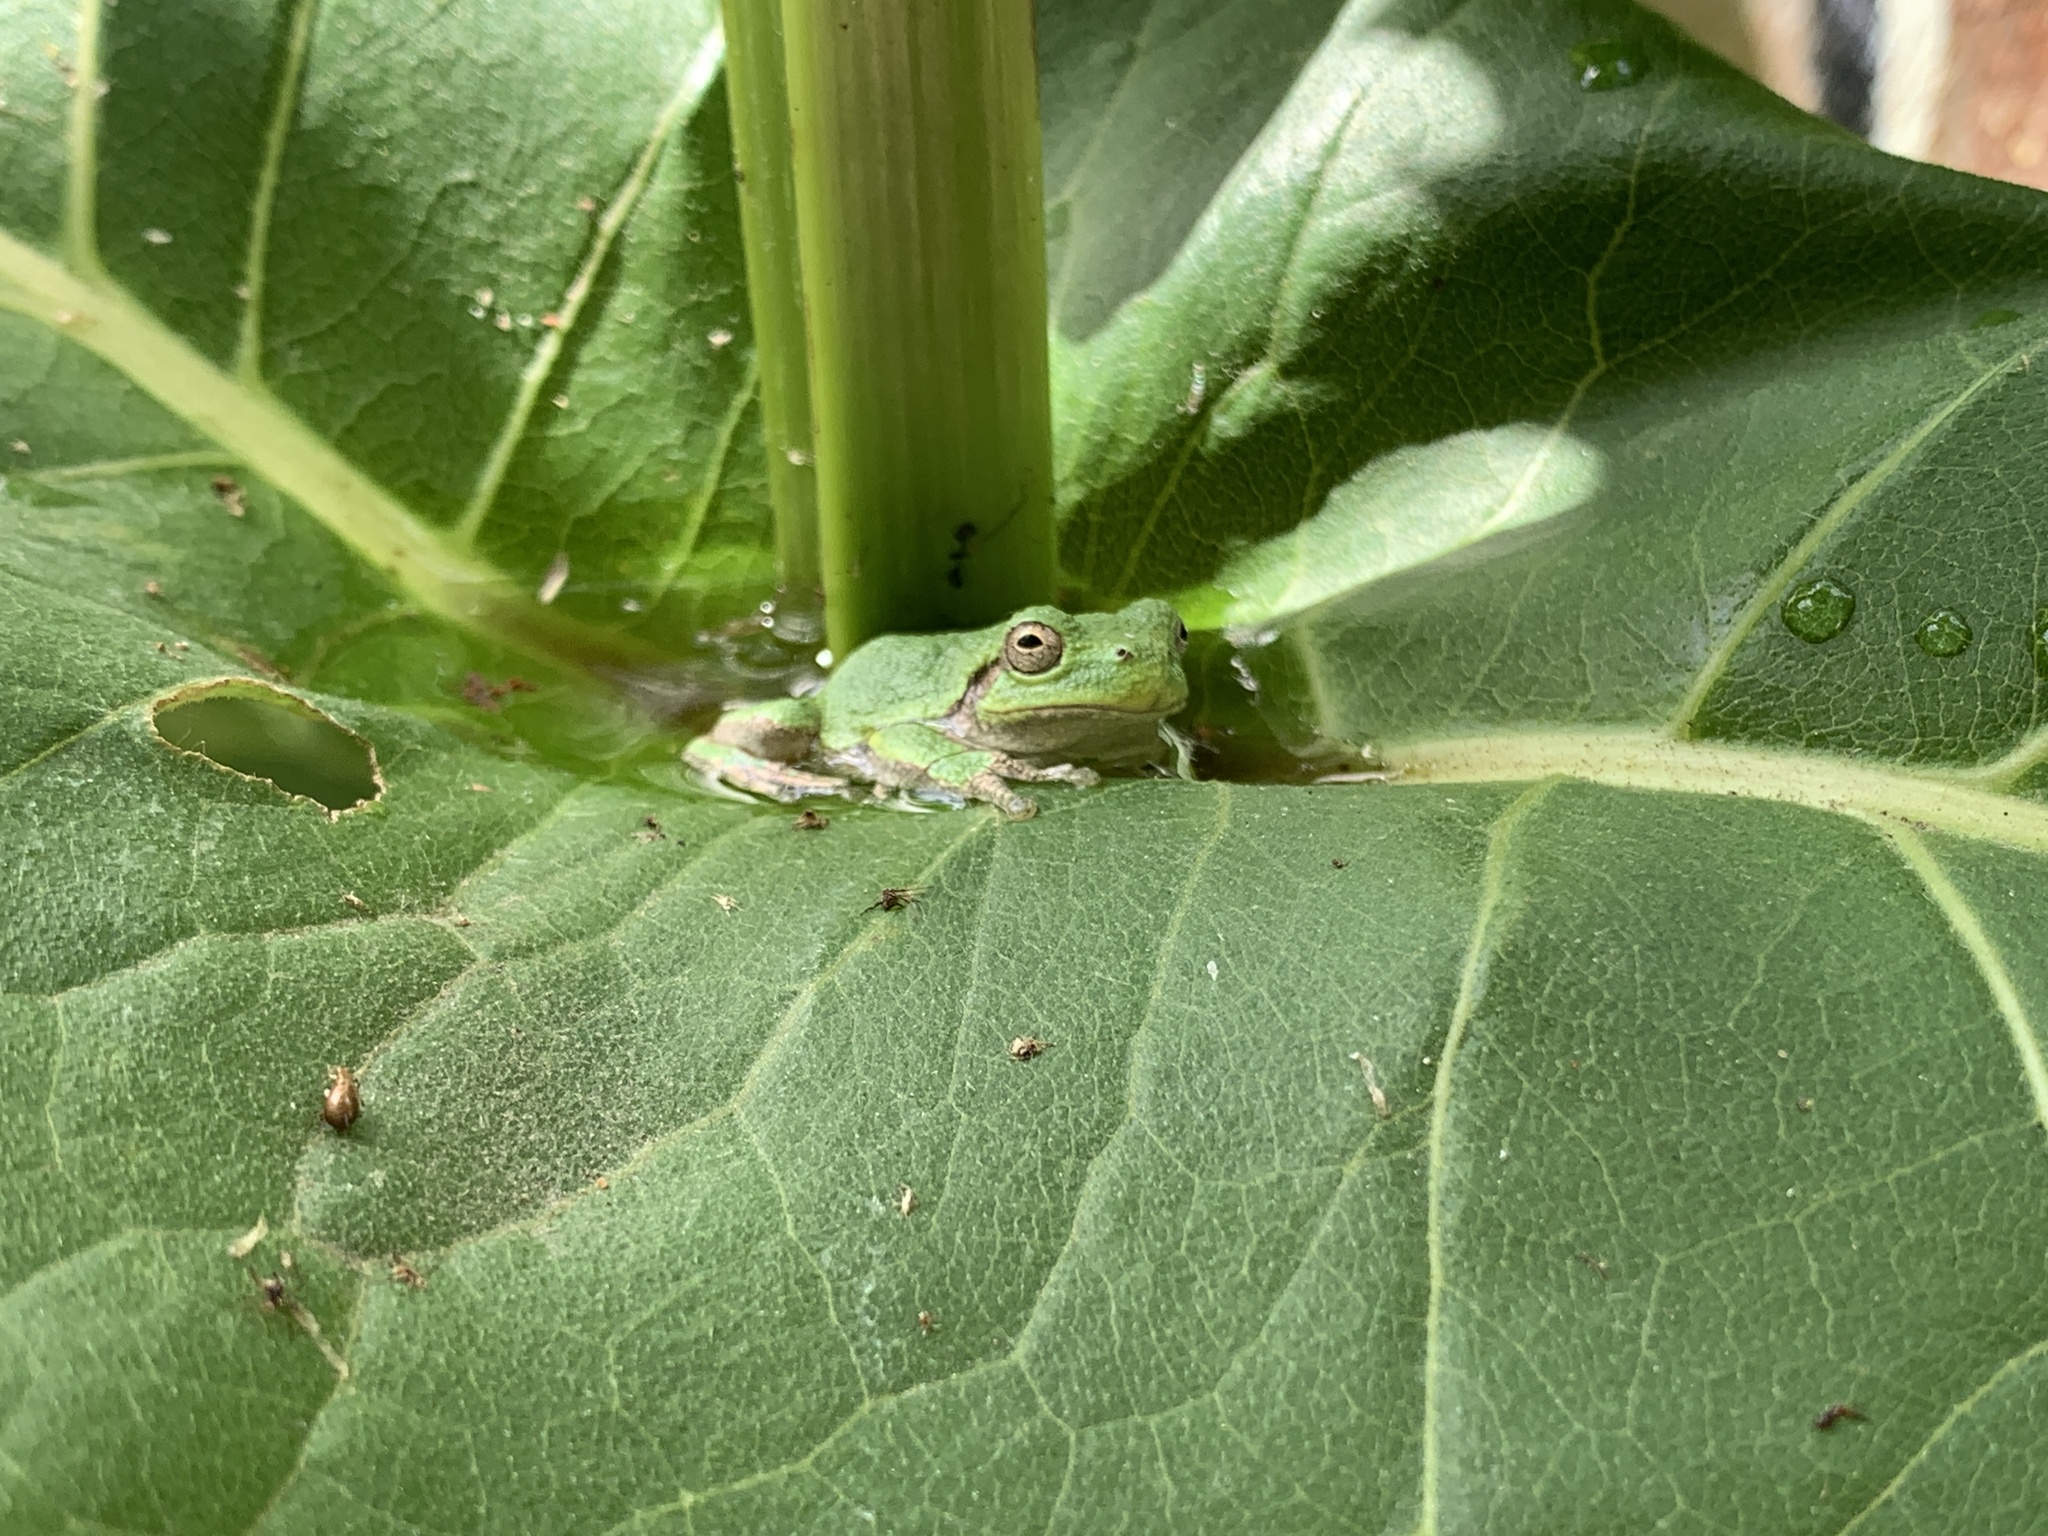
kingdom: Animalia
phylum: Chordata
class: Amphibia
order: Anura
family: Hylidae
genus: Hyla
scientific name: Hyla
